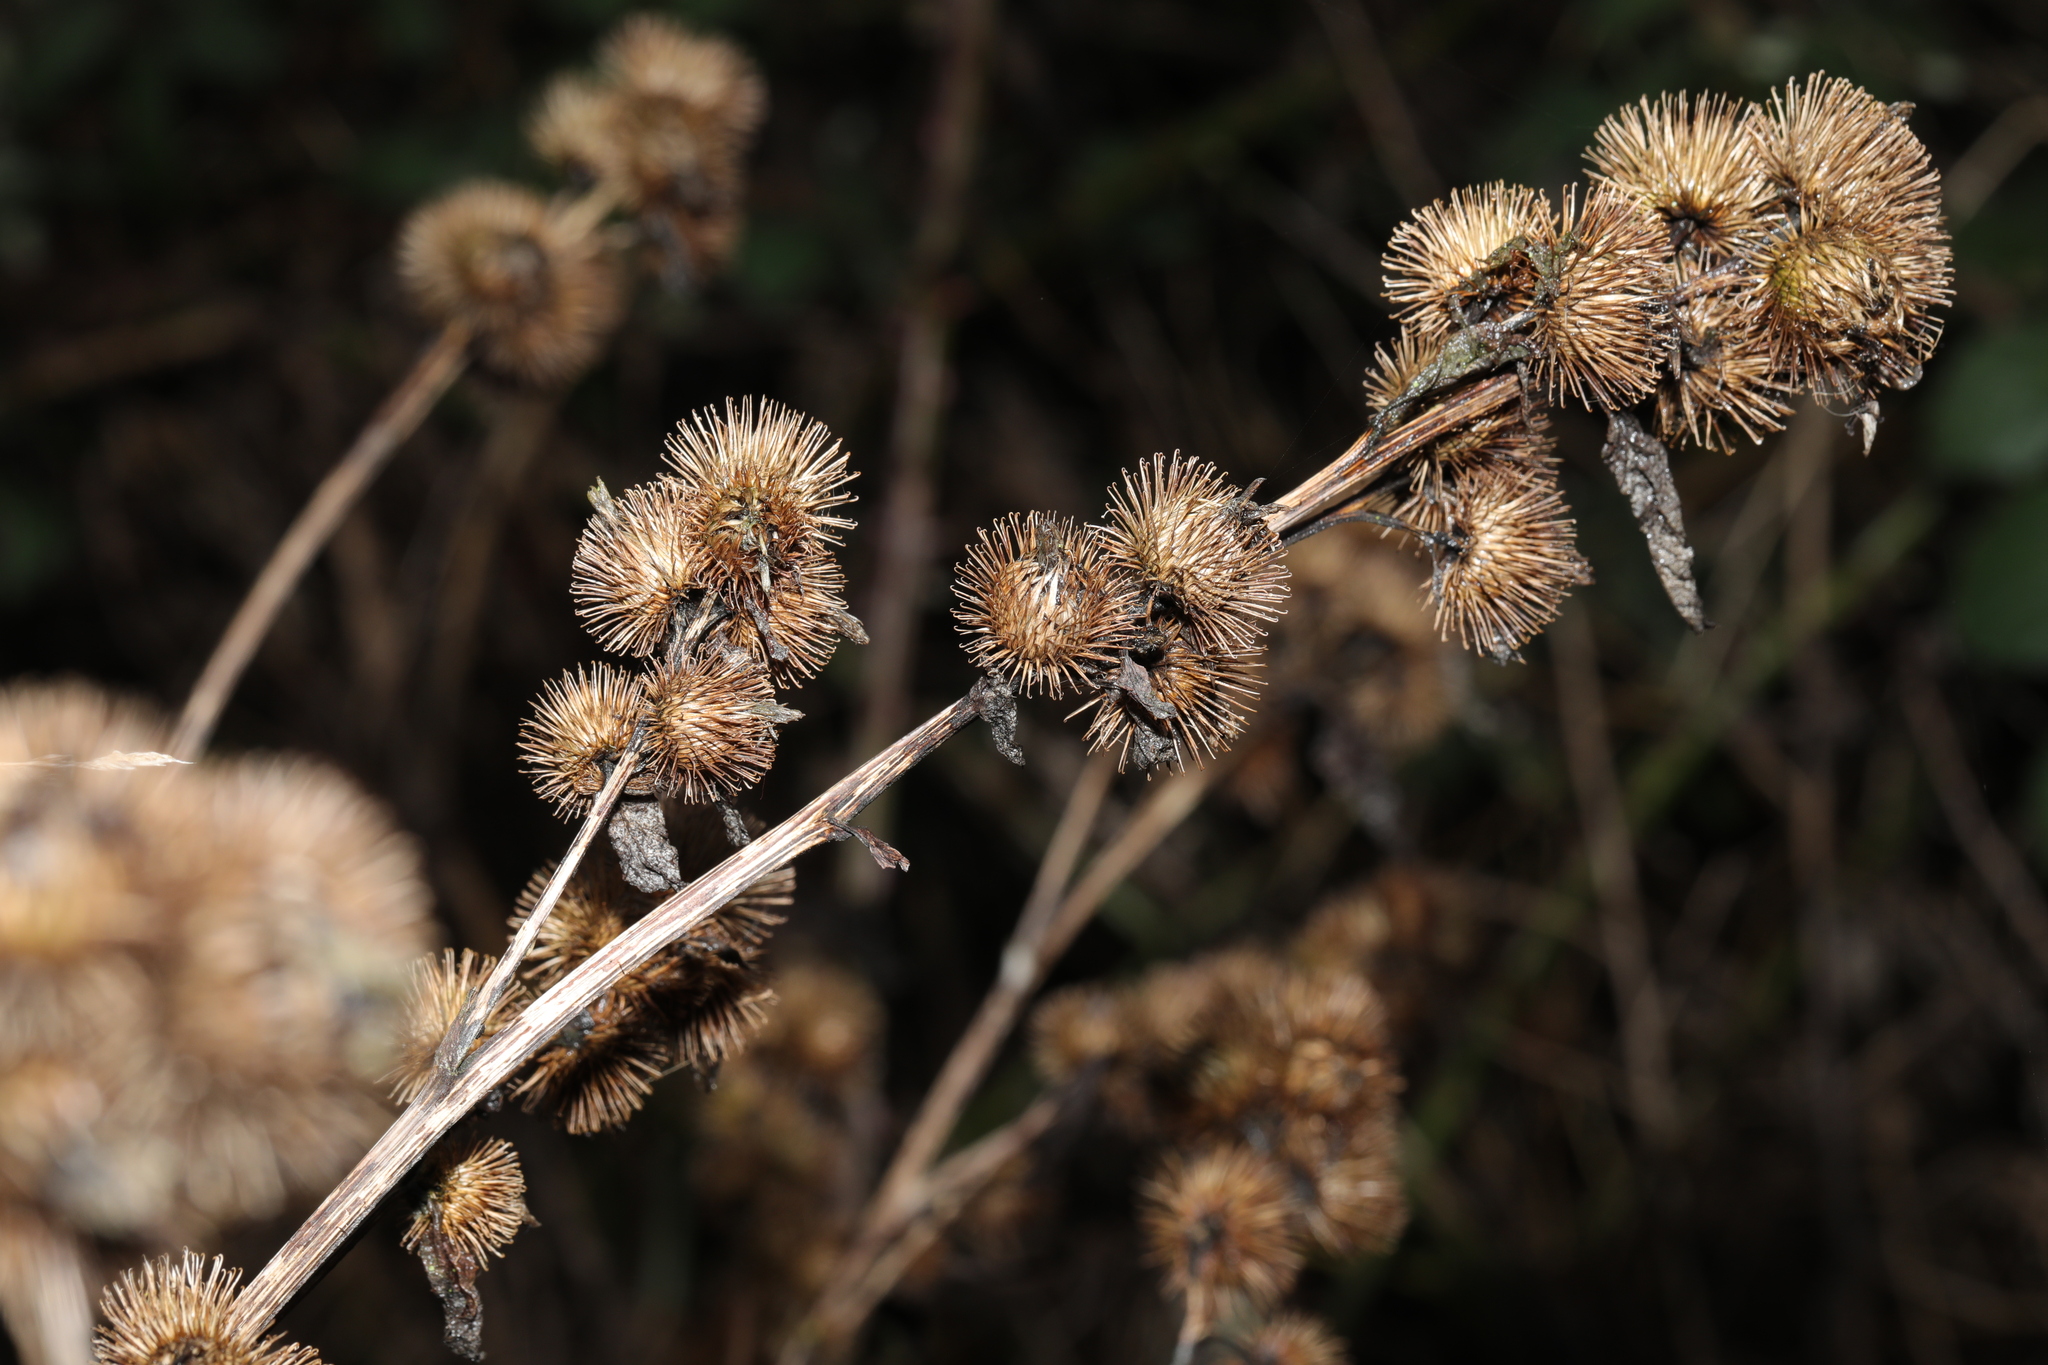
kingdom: Plantae
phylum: Tracheophyta
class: Magnoliopsida
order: Asterales
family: Asteraceae
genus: Arctium
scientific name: Arctium minus
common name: Lesser burdock
